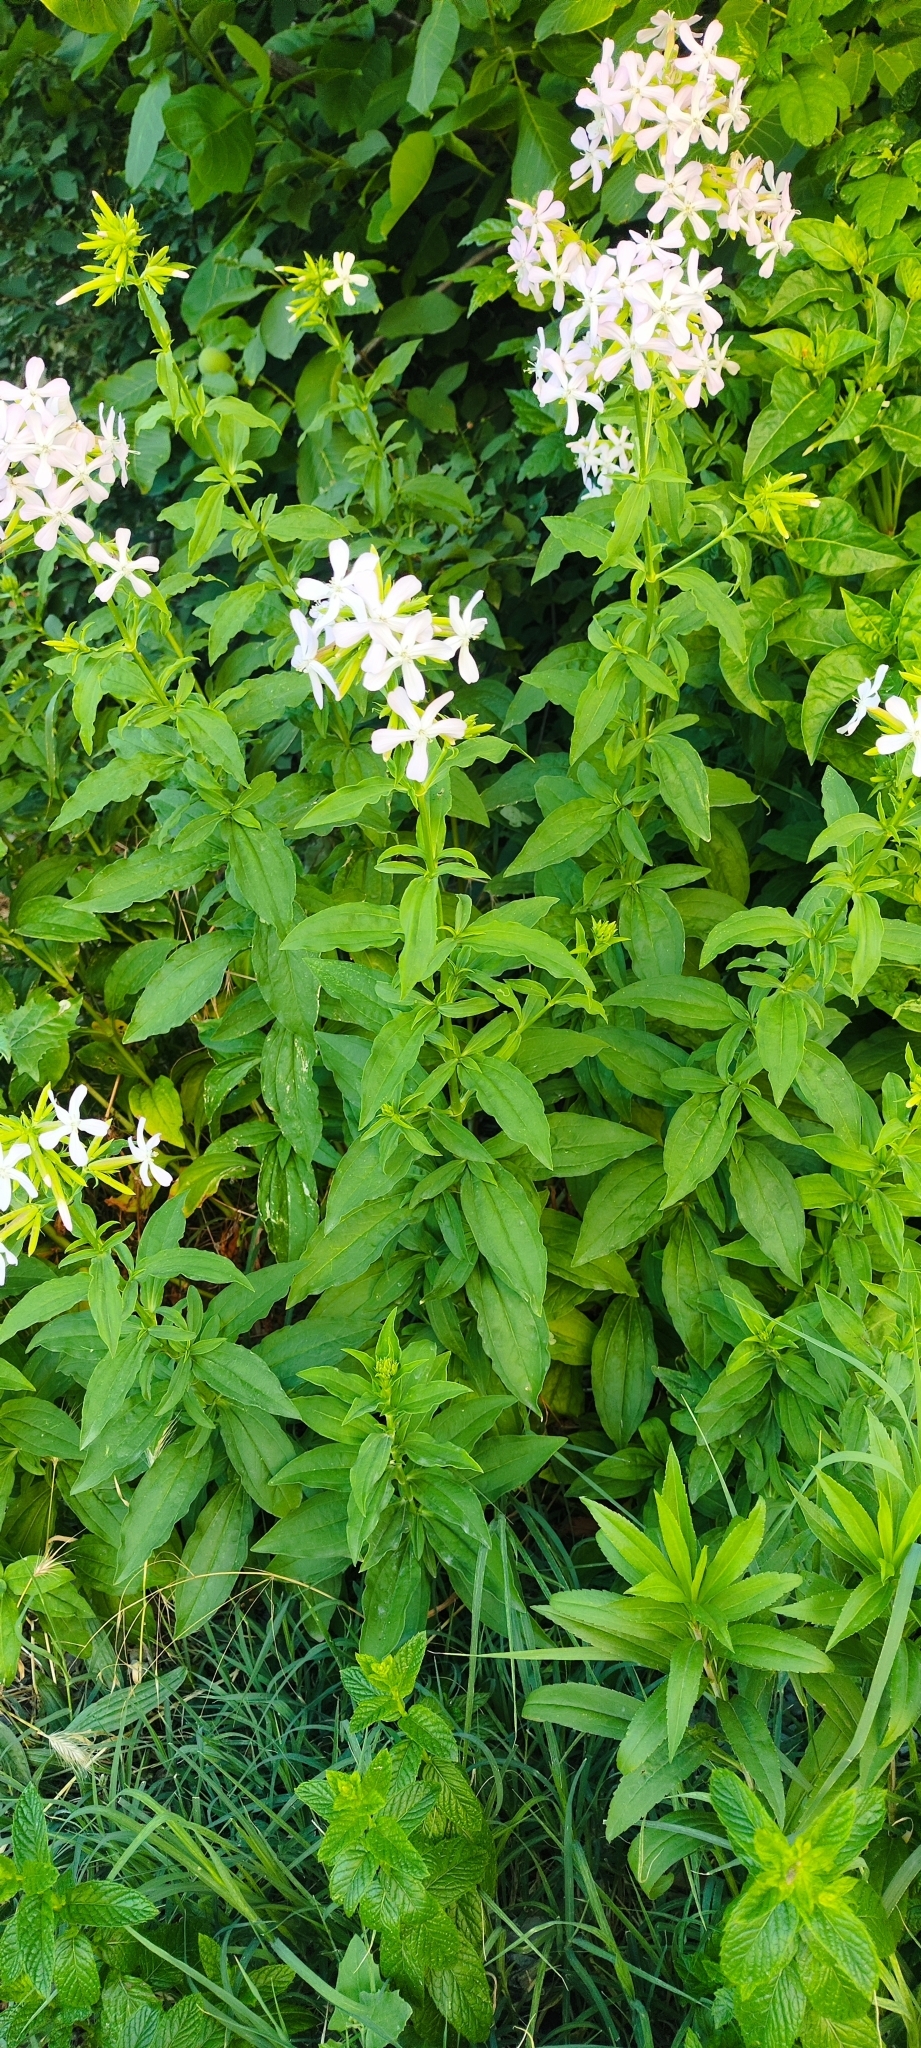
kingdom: Plantae
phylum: Tracheophyta
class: Magnoliopsida
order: Caryophyllales
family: Caryophyllaceae
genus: Saponaria
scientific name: Saponaria officinalis
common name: Soapwort
